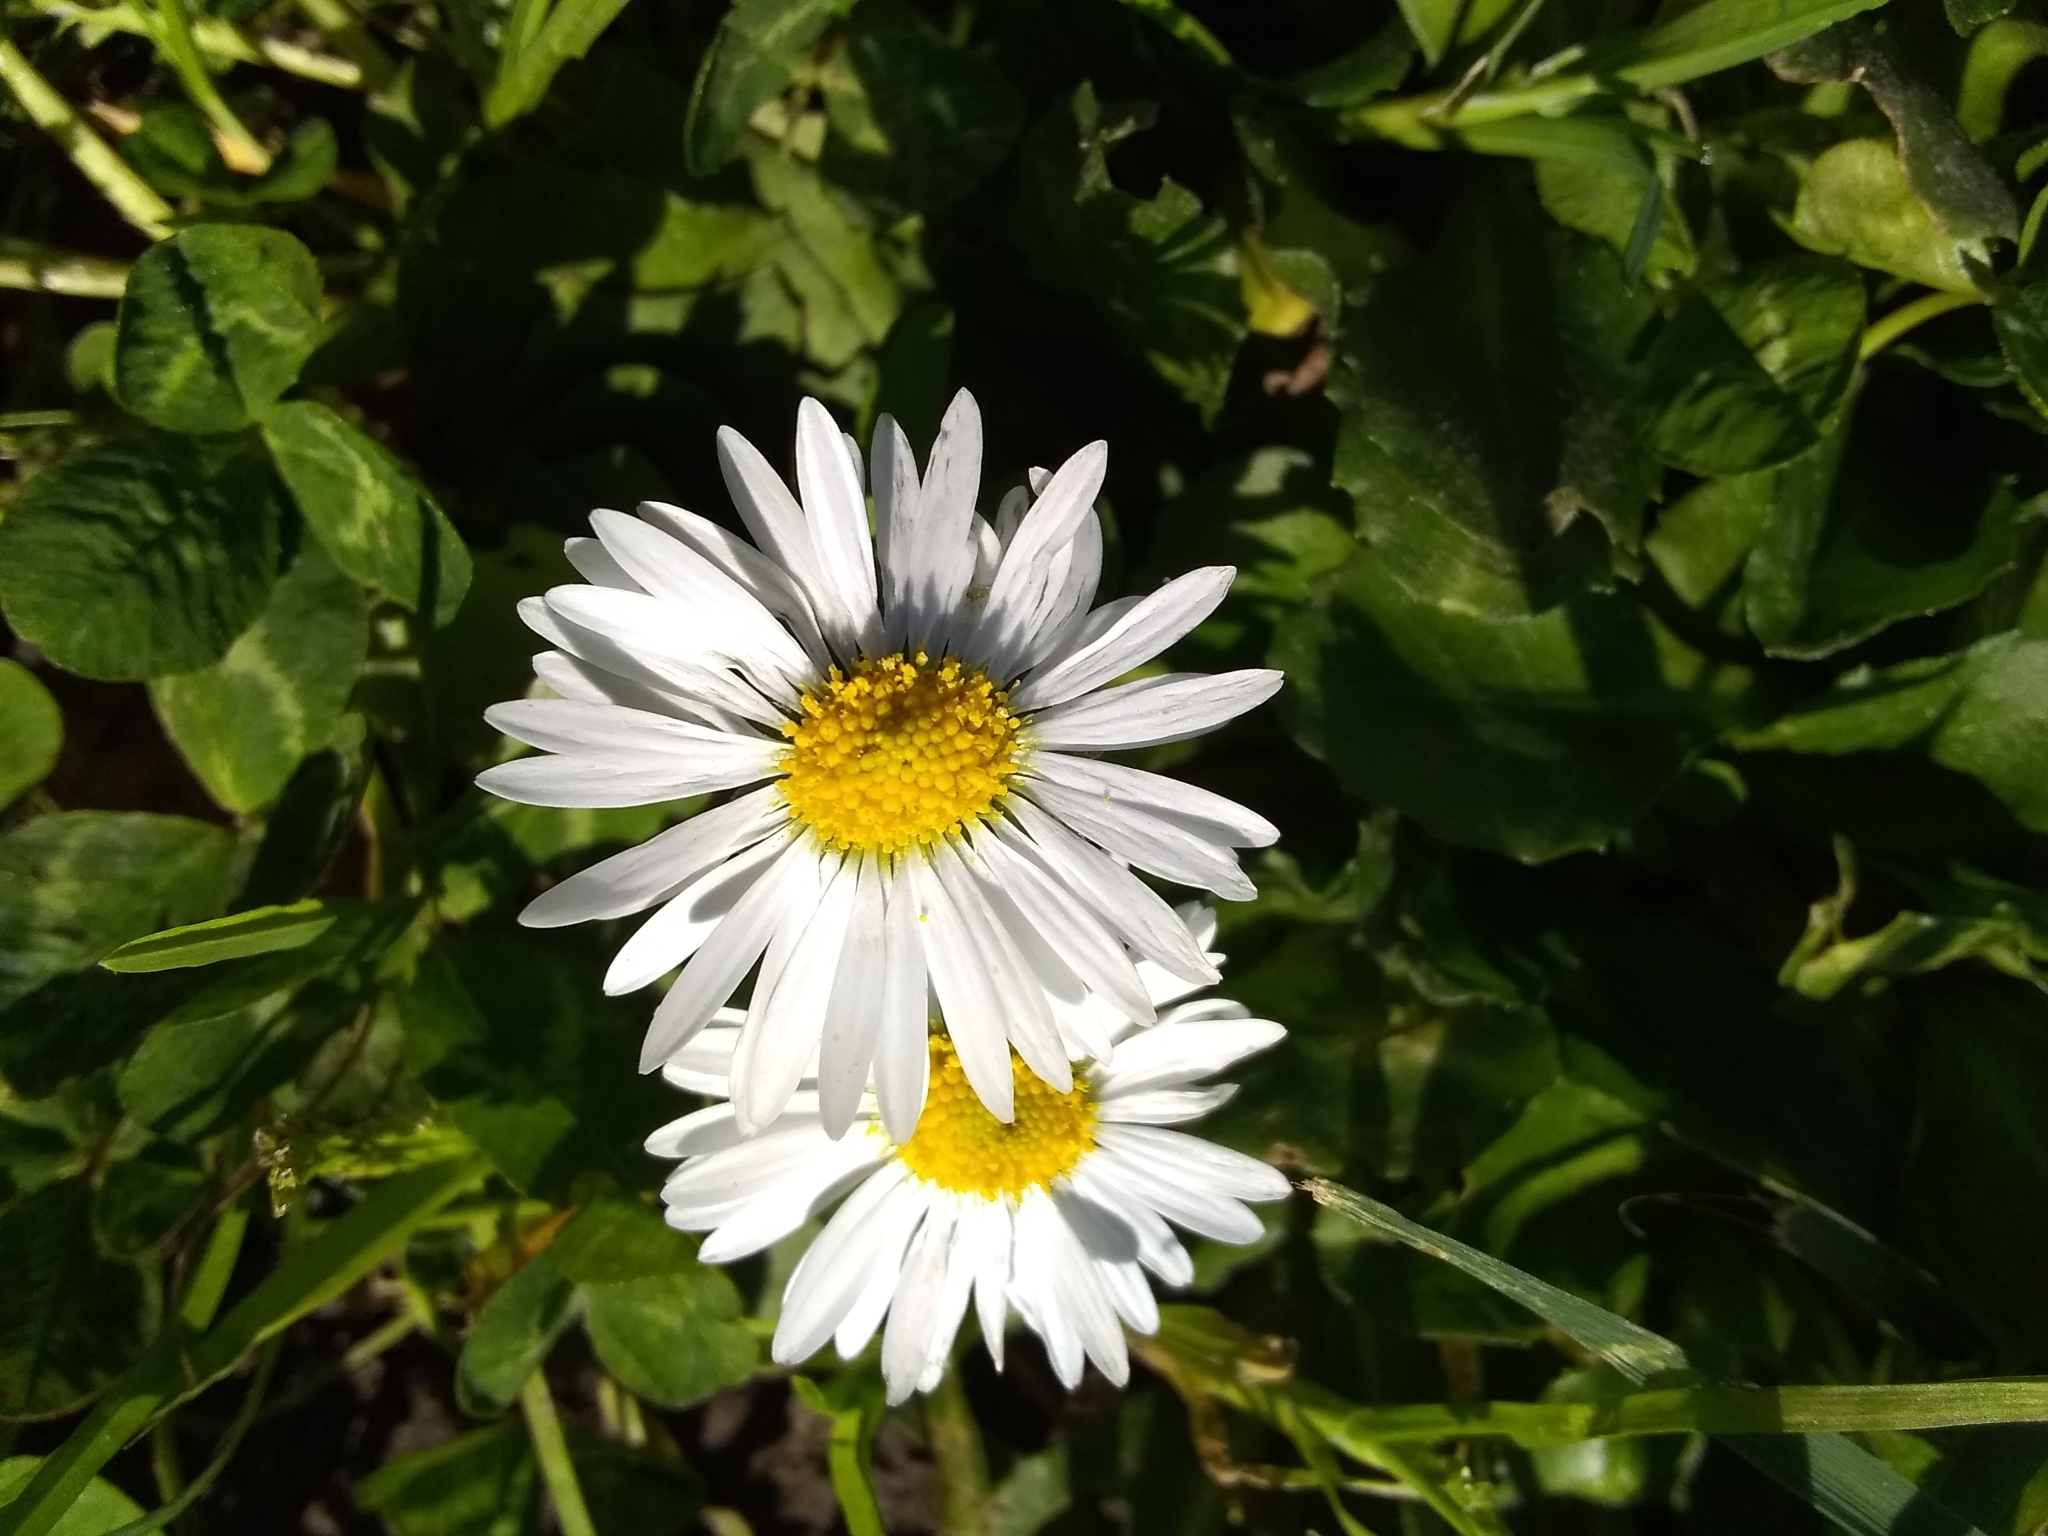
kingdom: Plantae
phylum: Tracheophyta
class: Magnoliopsida
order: Asterales
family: Asteraceae
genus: Bellis
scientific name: Bellis perennis
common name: Lawndaisy
